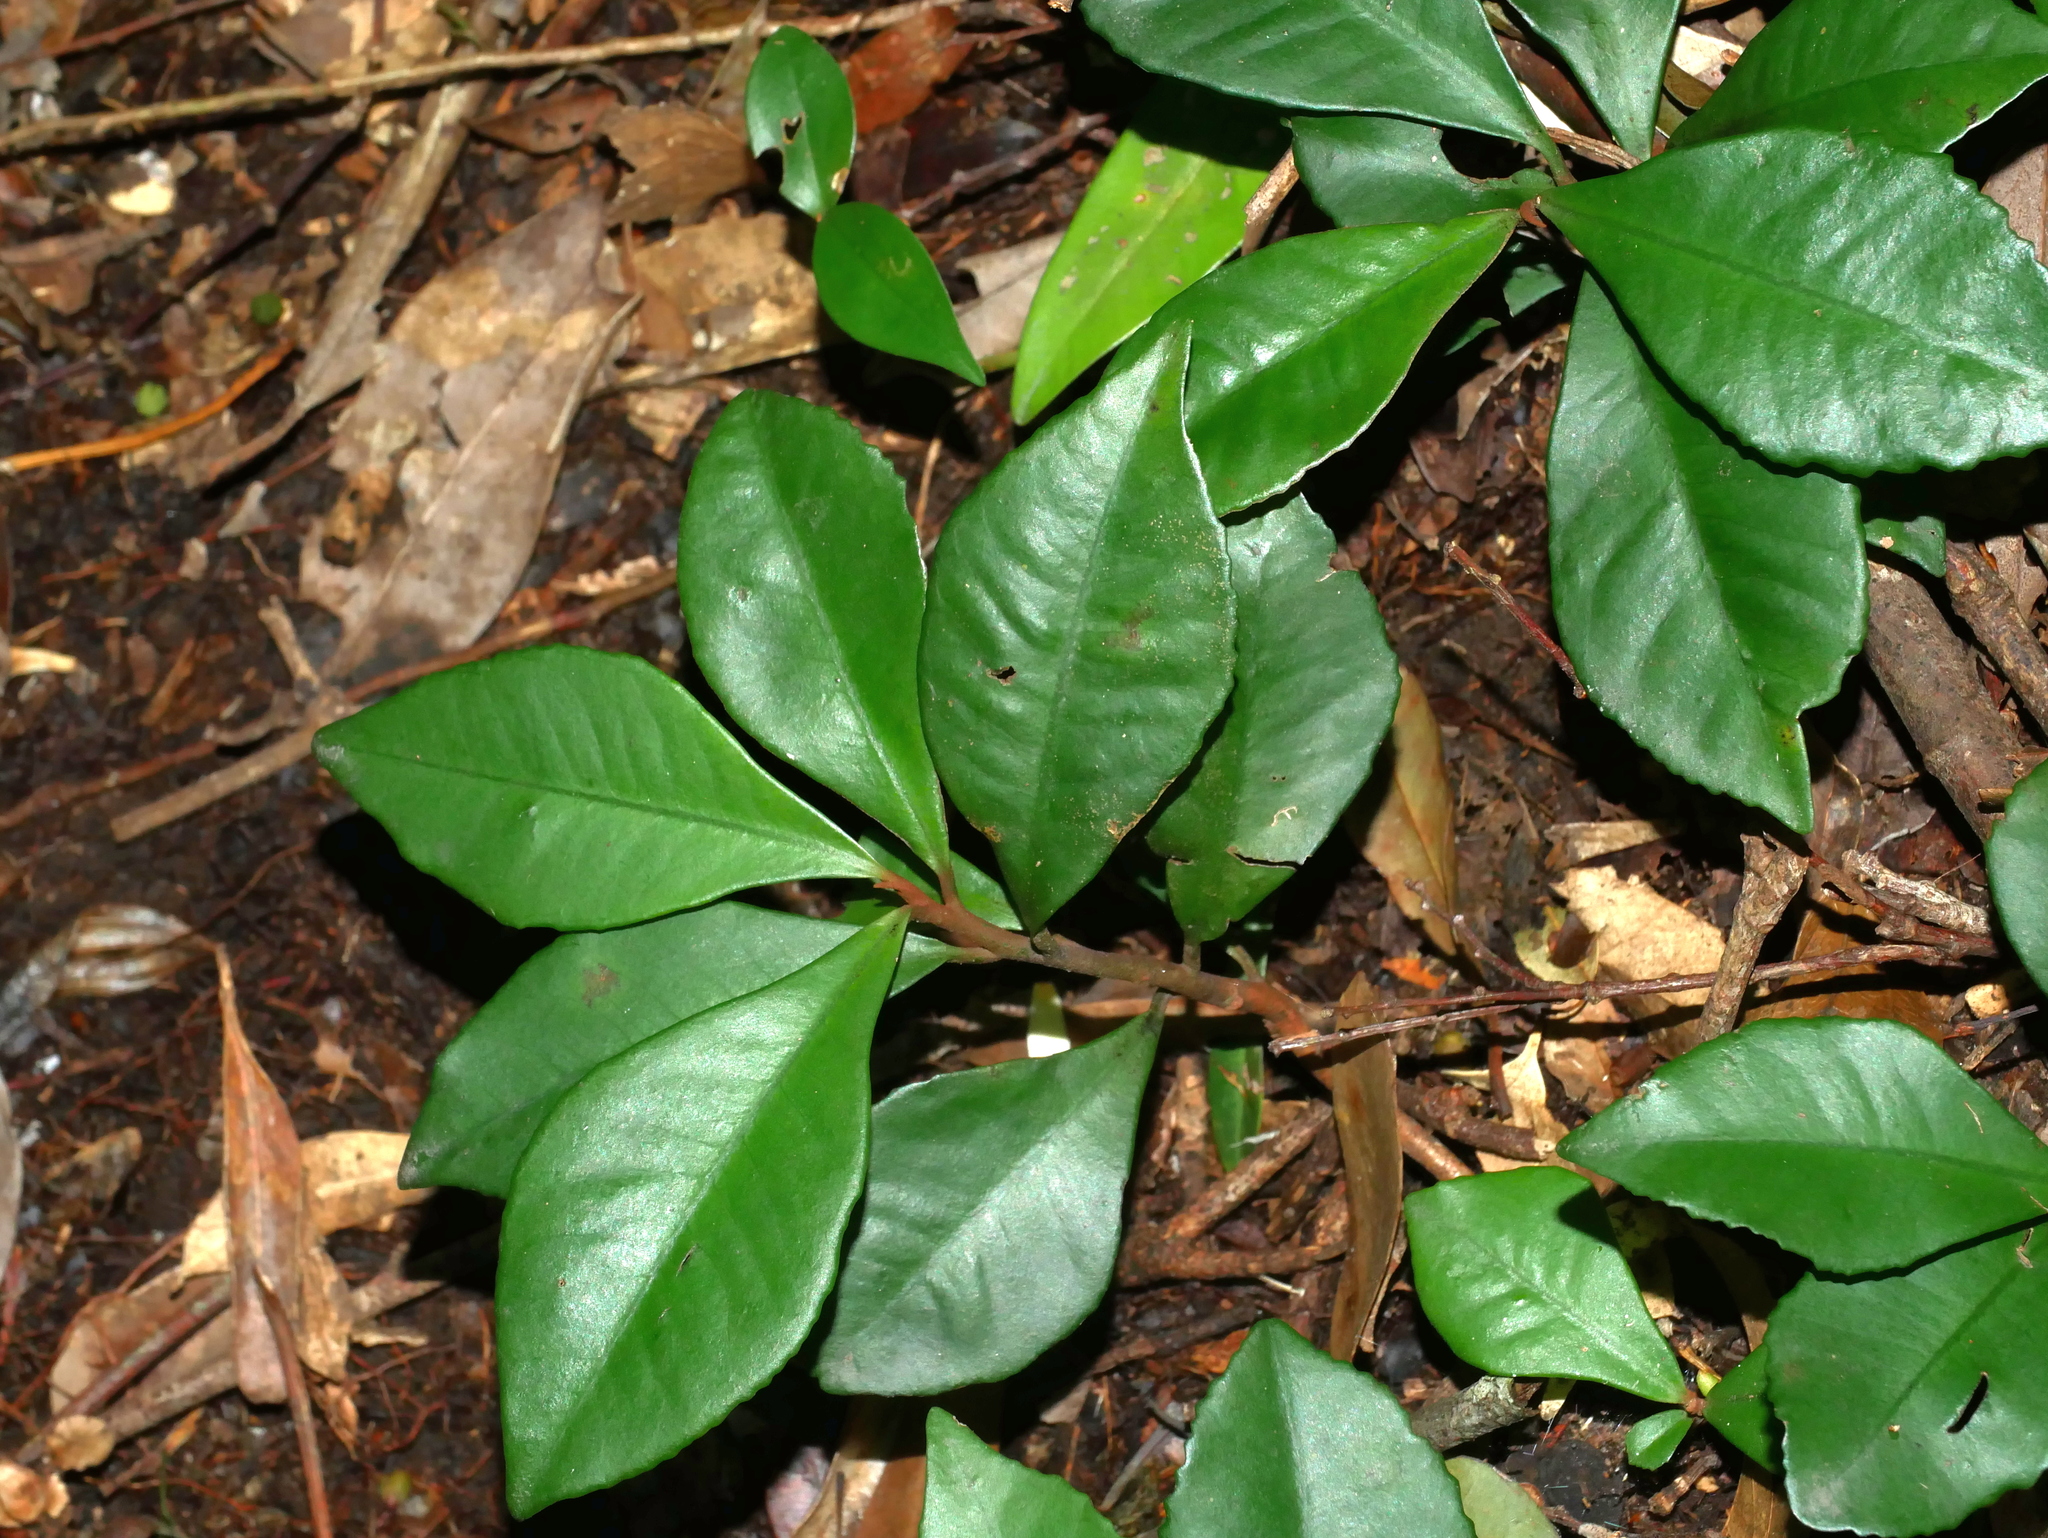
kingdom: Plantae
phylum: Tracheophyta
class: Magnoliopsida
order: Ericales
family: Primulaceae
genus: Ardisia
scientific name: Ardisia cymosa
